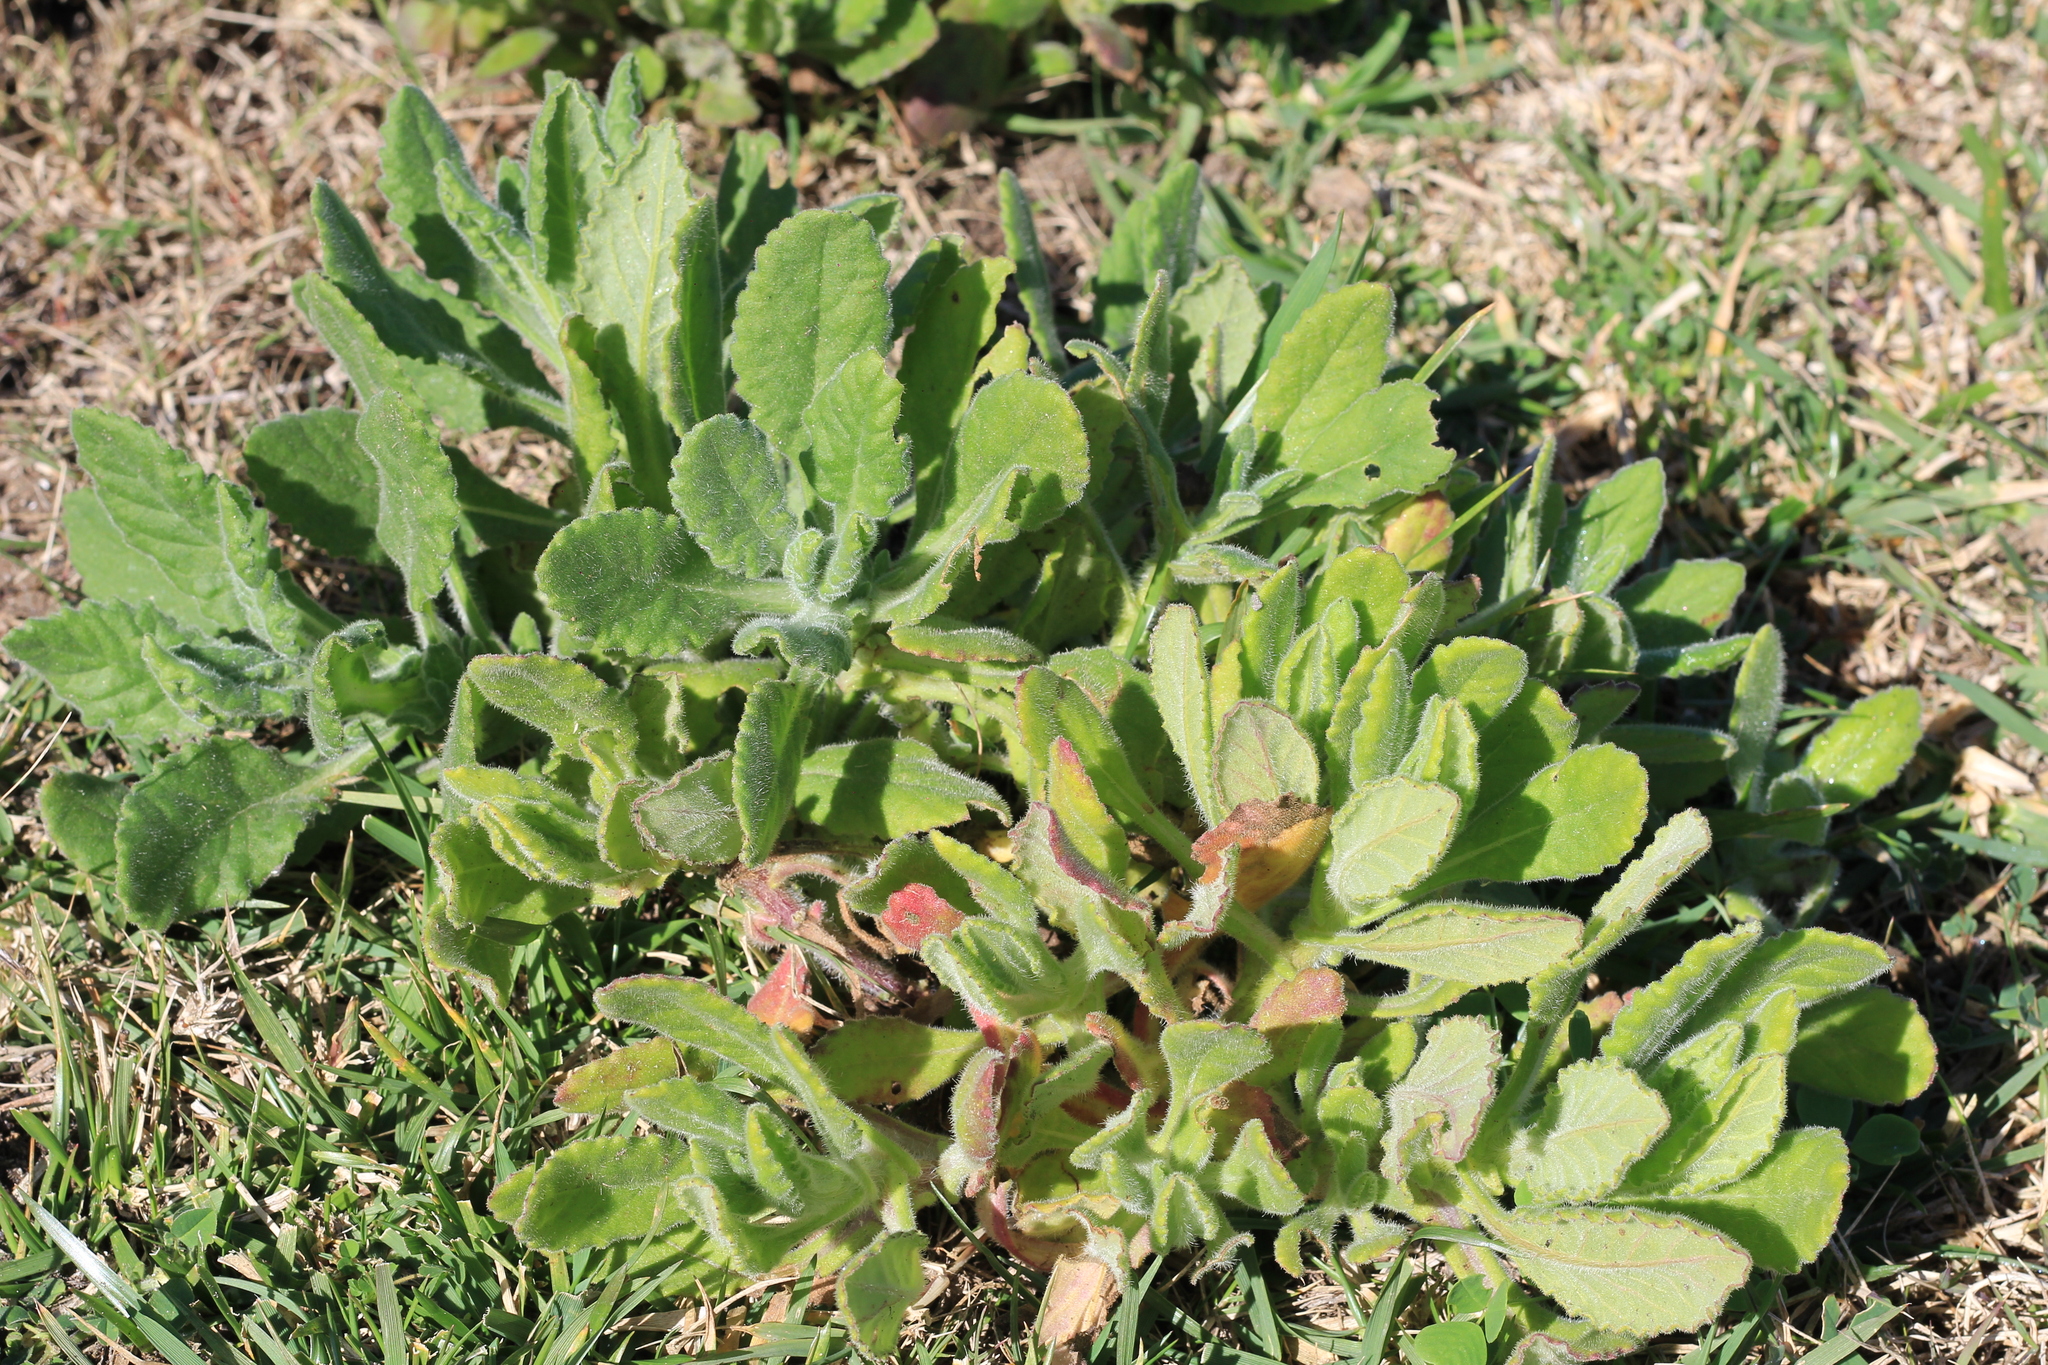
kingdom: Plantae
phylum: Tracheophyta
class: Magnoliopsida
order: Asterales
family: Asteraceae
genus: Senecio
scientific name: Senecio selloi
